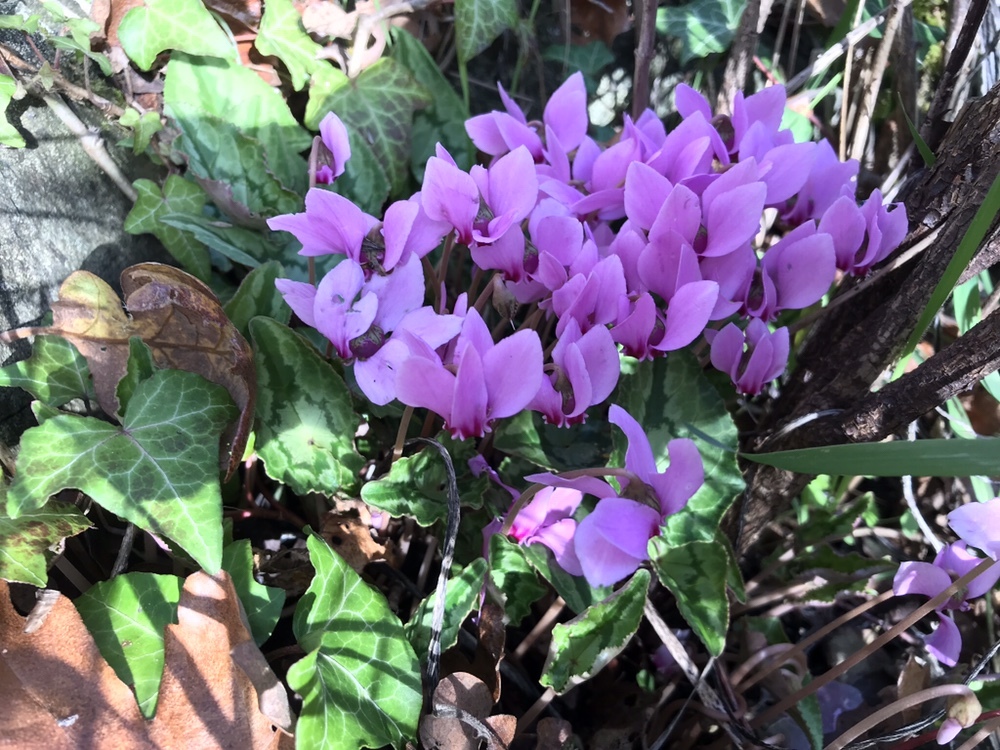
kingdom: Plantae
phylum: Tracheophyta
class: Magnoliopsida
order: Ericales
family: Primulaceae
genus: Cyclamen
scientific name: Cyclamen hederifolium
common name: Sowbread
